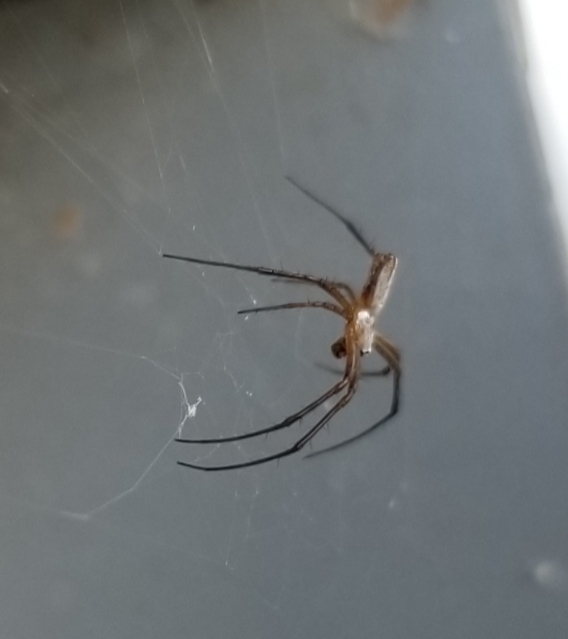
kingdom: Animalia
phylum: Arthropoda
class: Arachnida
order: Araneae
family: Araneidae
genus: Argiope
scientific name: Argiope trifasciata
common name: Banded garden spider
